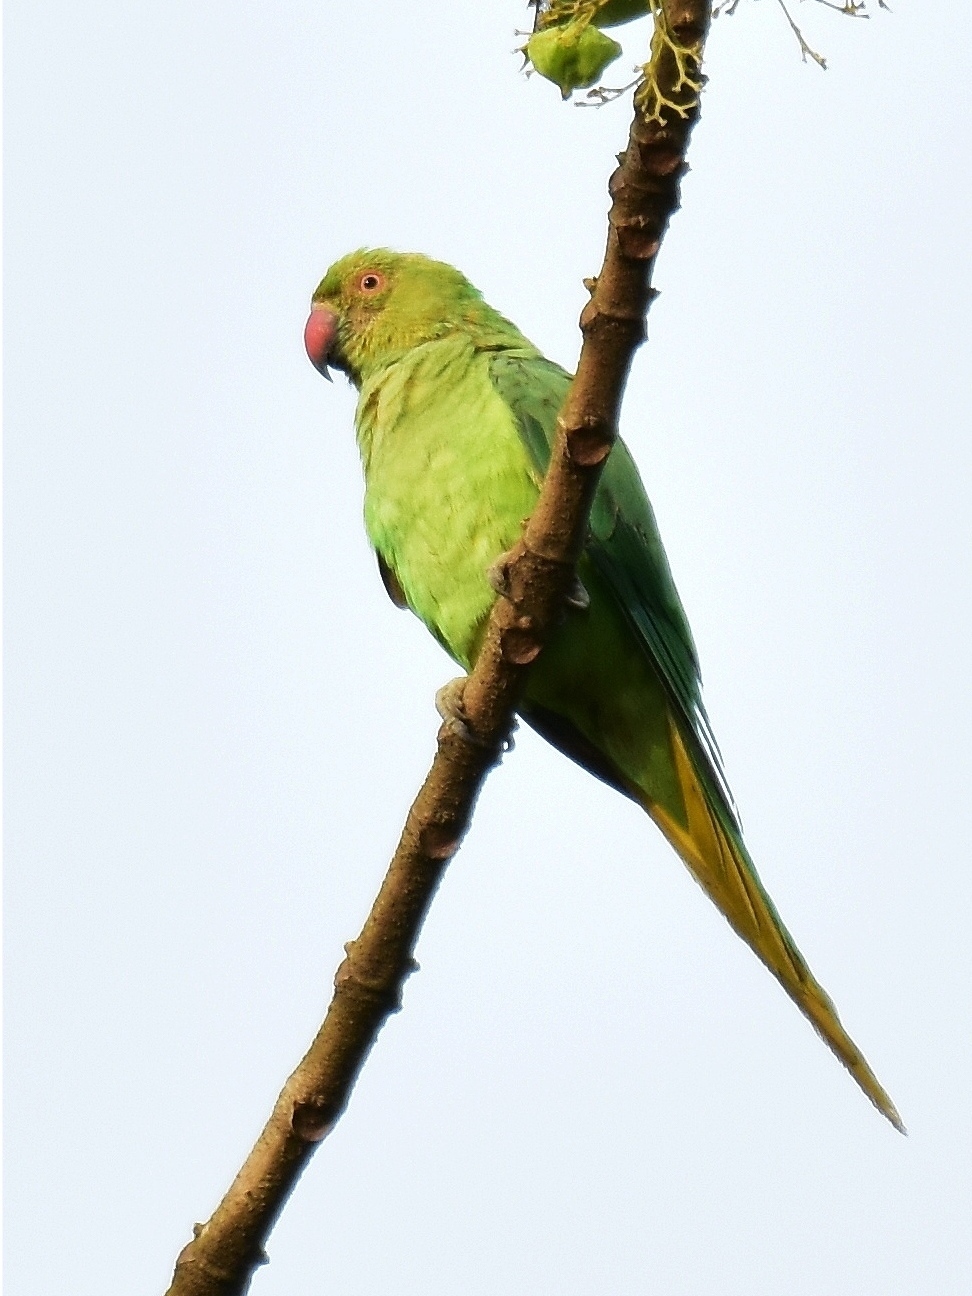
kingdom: Animalia
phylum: Chordata
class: Aves
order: Psittaciformes
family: Psittacidae
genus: Psittacula
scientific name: Psittacula krameri
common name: Rose-ringed parakeet
